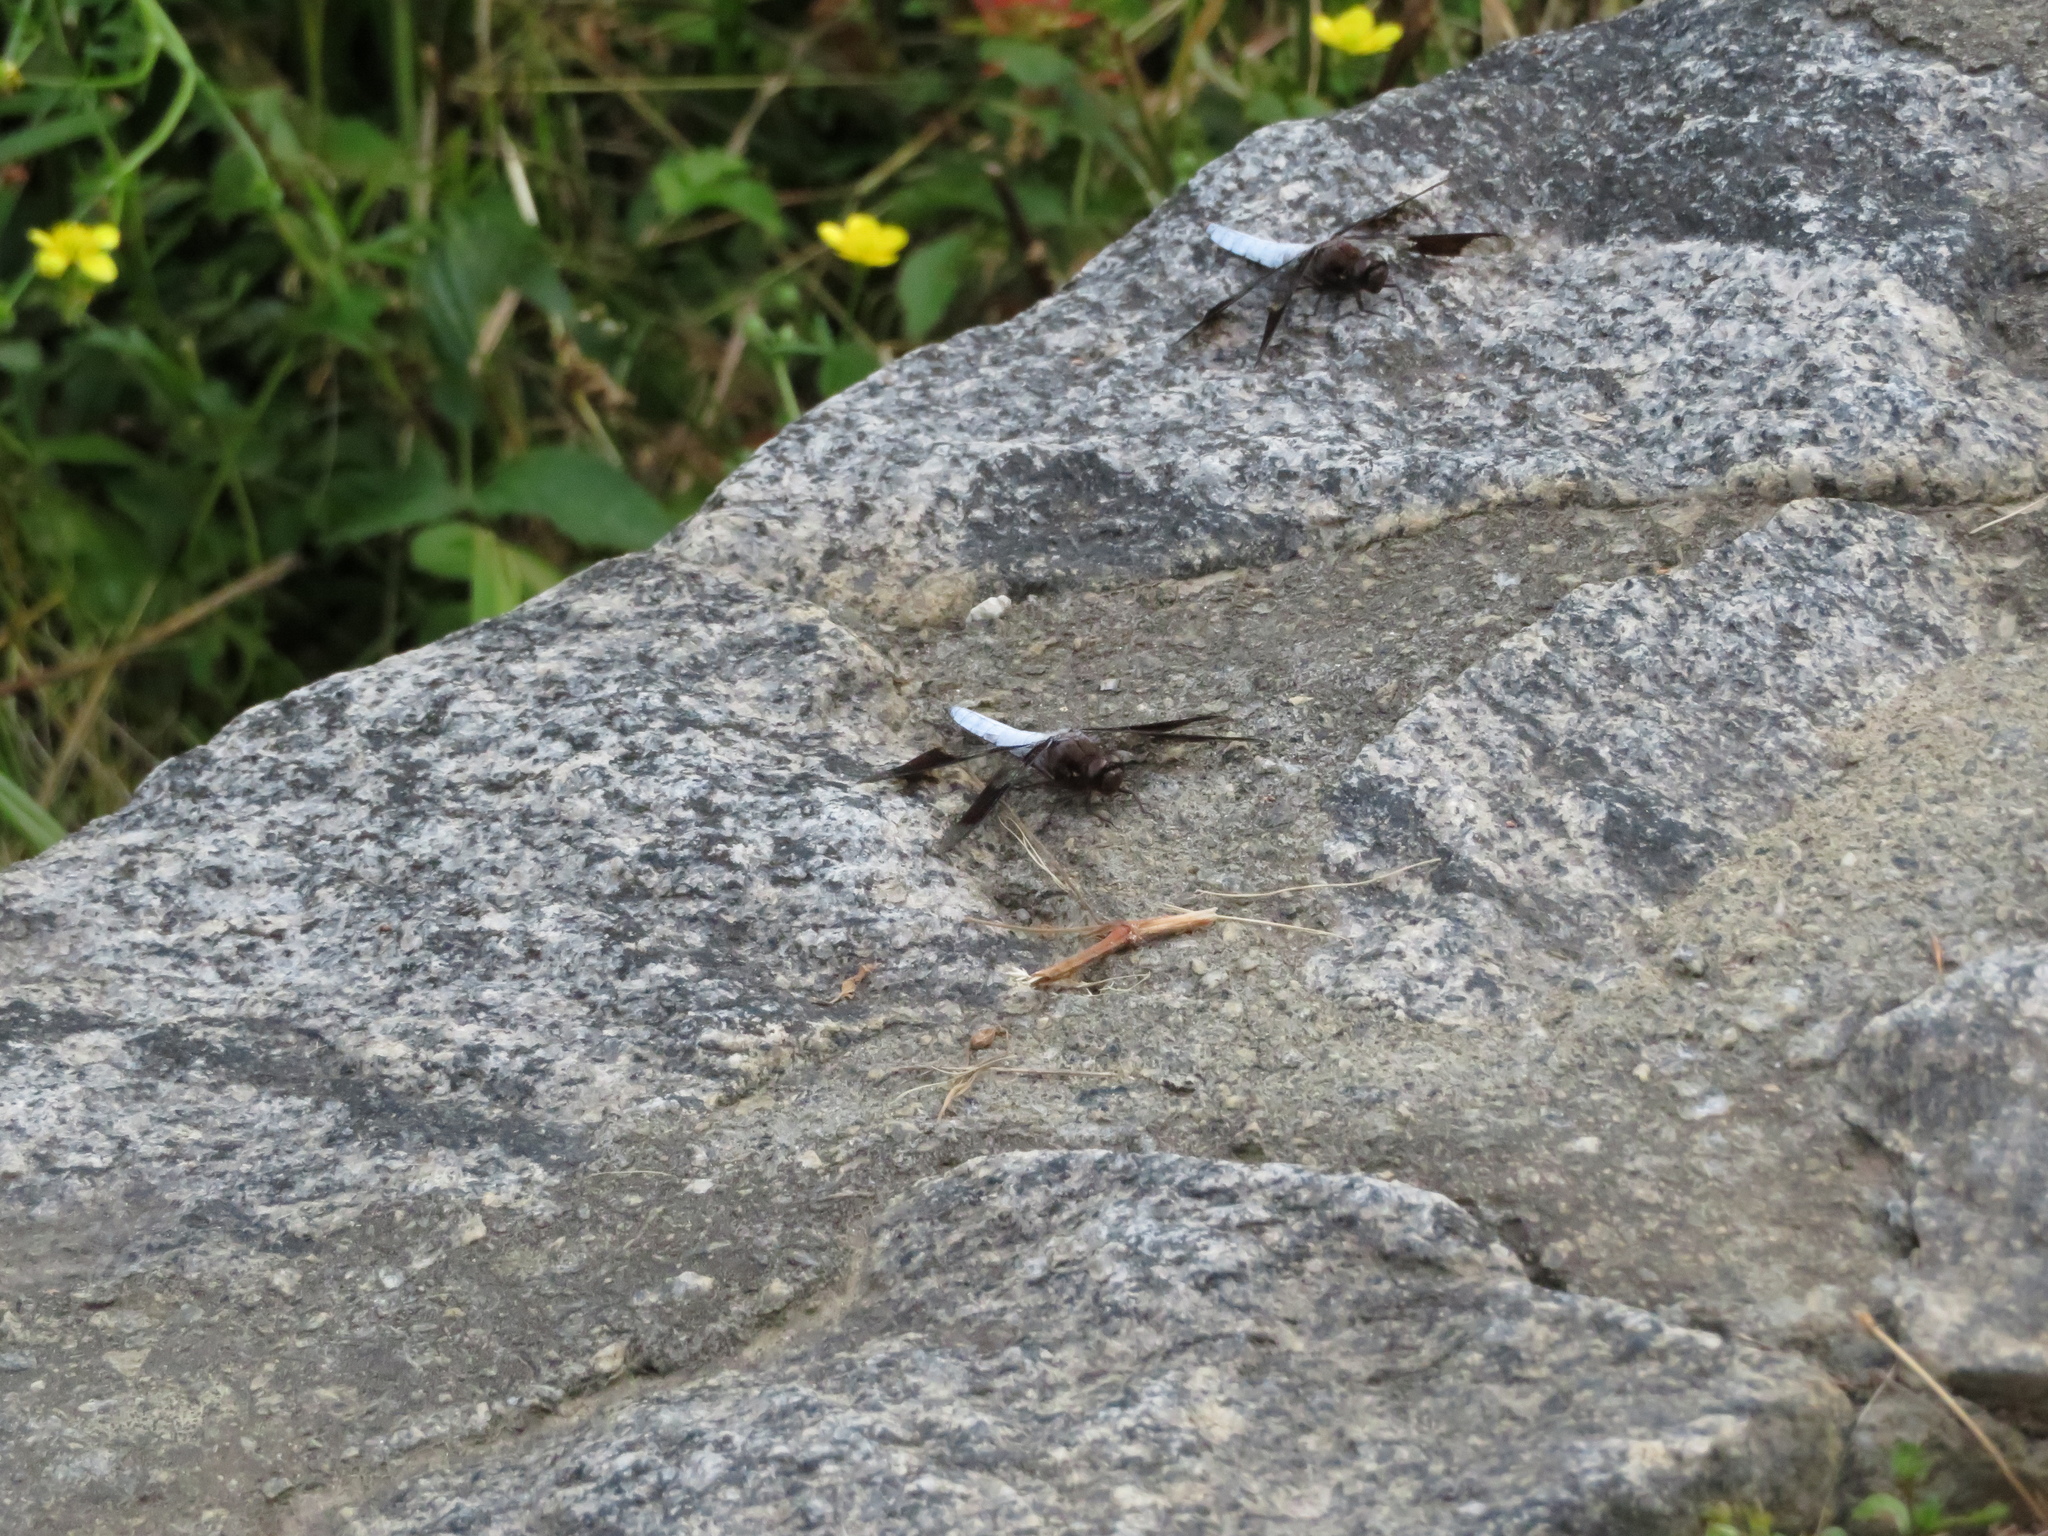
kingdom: Animalia
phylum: Arthropoda
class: Insecta
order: Odonata
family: Libellulidae
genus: Plathemis
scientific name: Plathemis lydia
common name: Common whitetail
